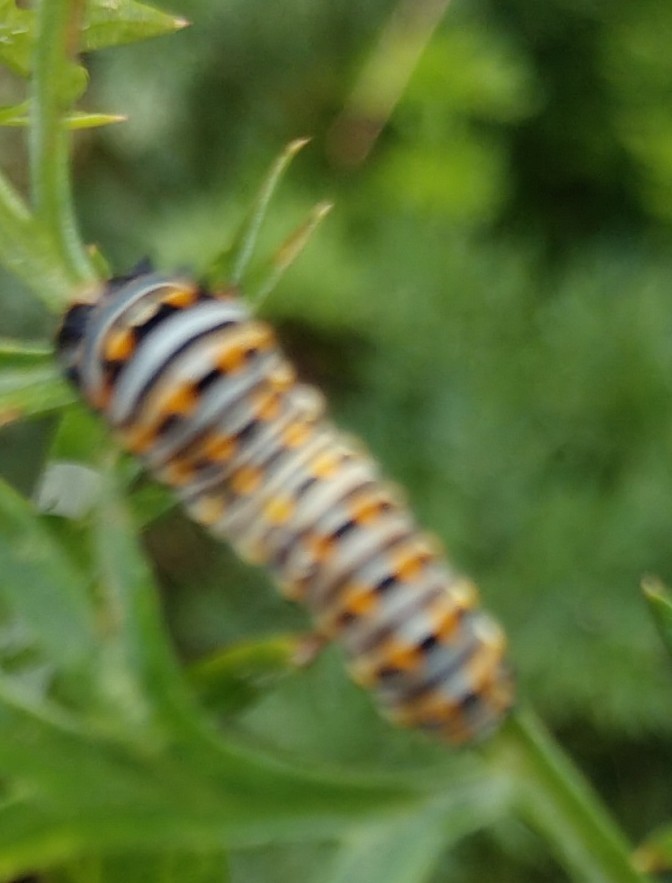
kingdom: Animalia
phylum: Arthropoda
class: Insecta
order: Lepidoptera
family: Papilionidae
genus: Papilio
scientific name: Papilio polyxenes
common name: Black swallowtail
